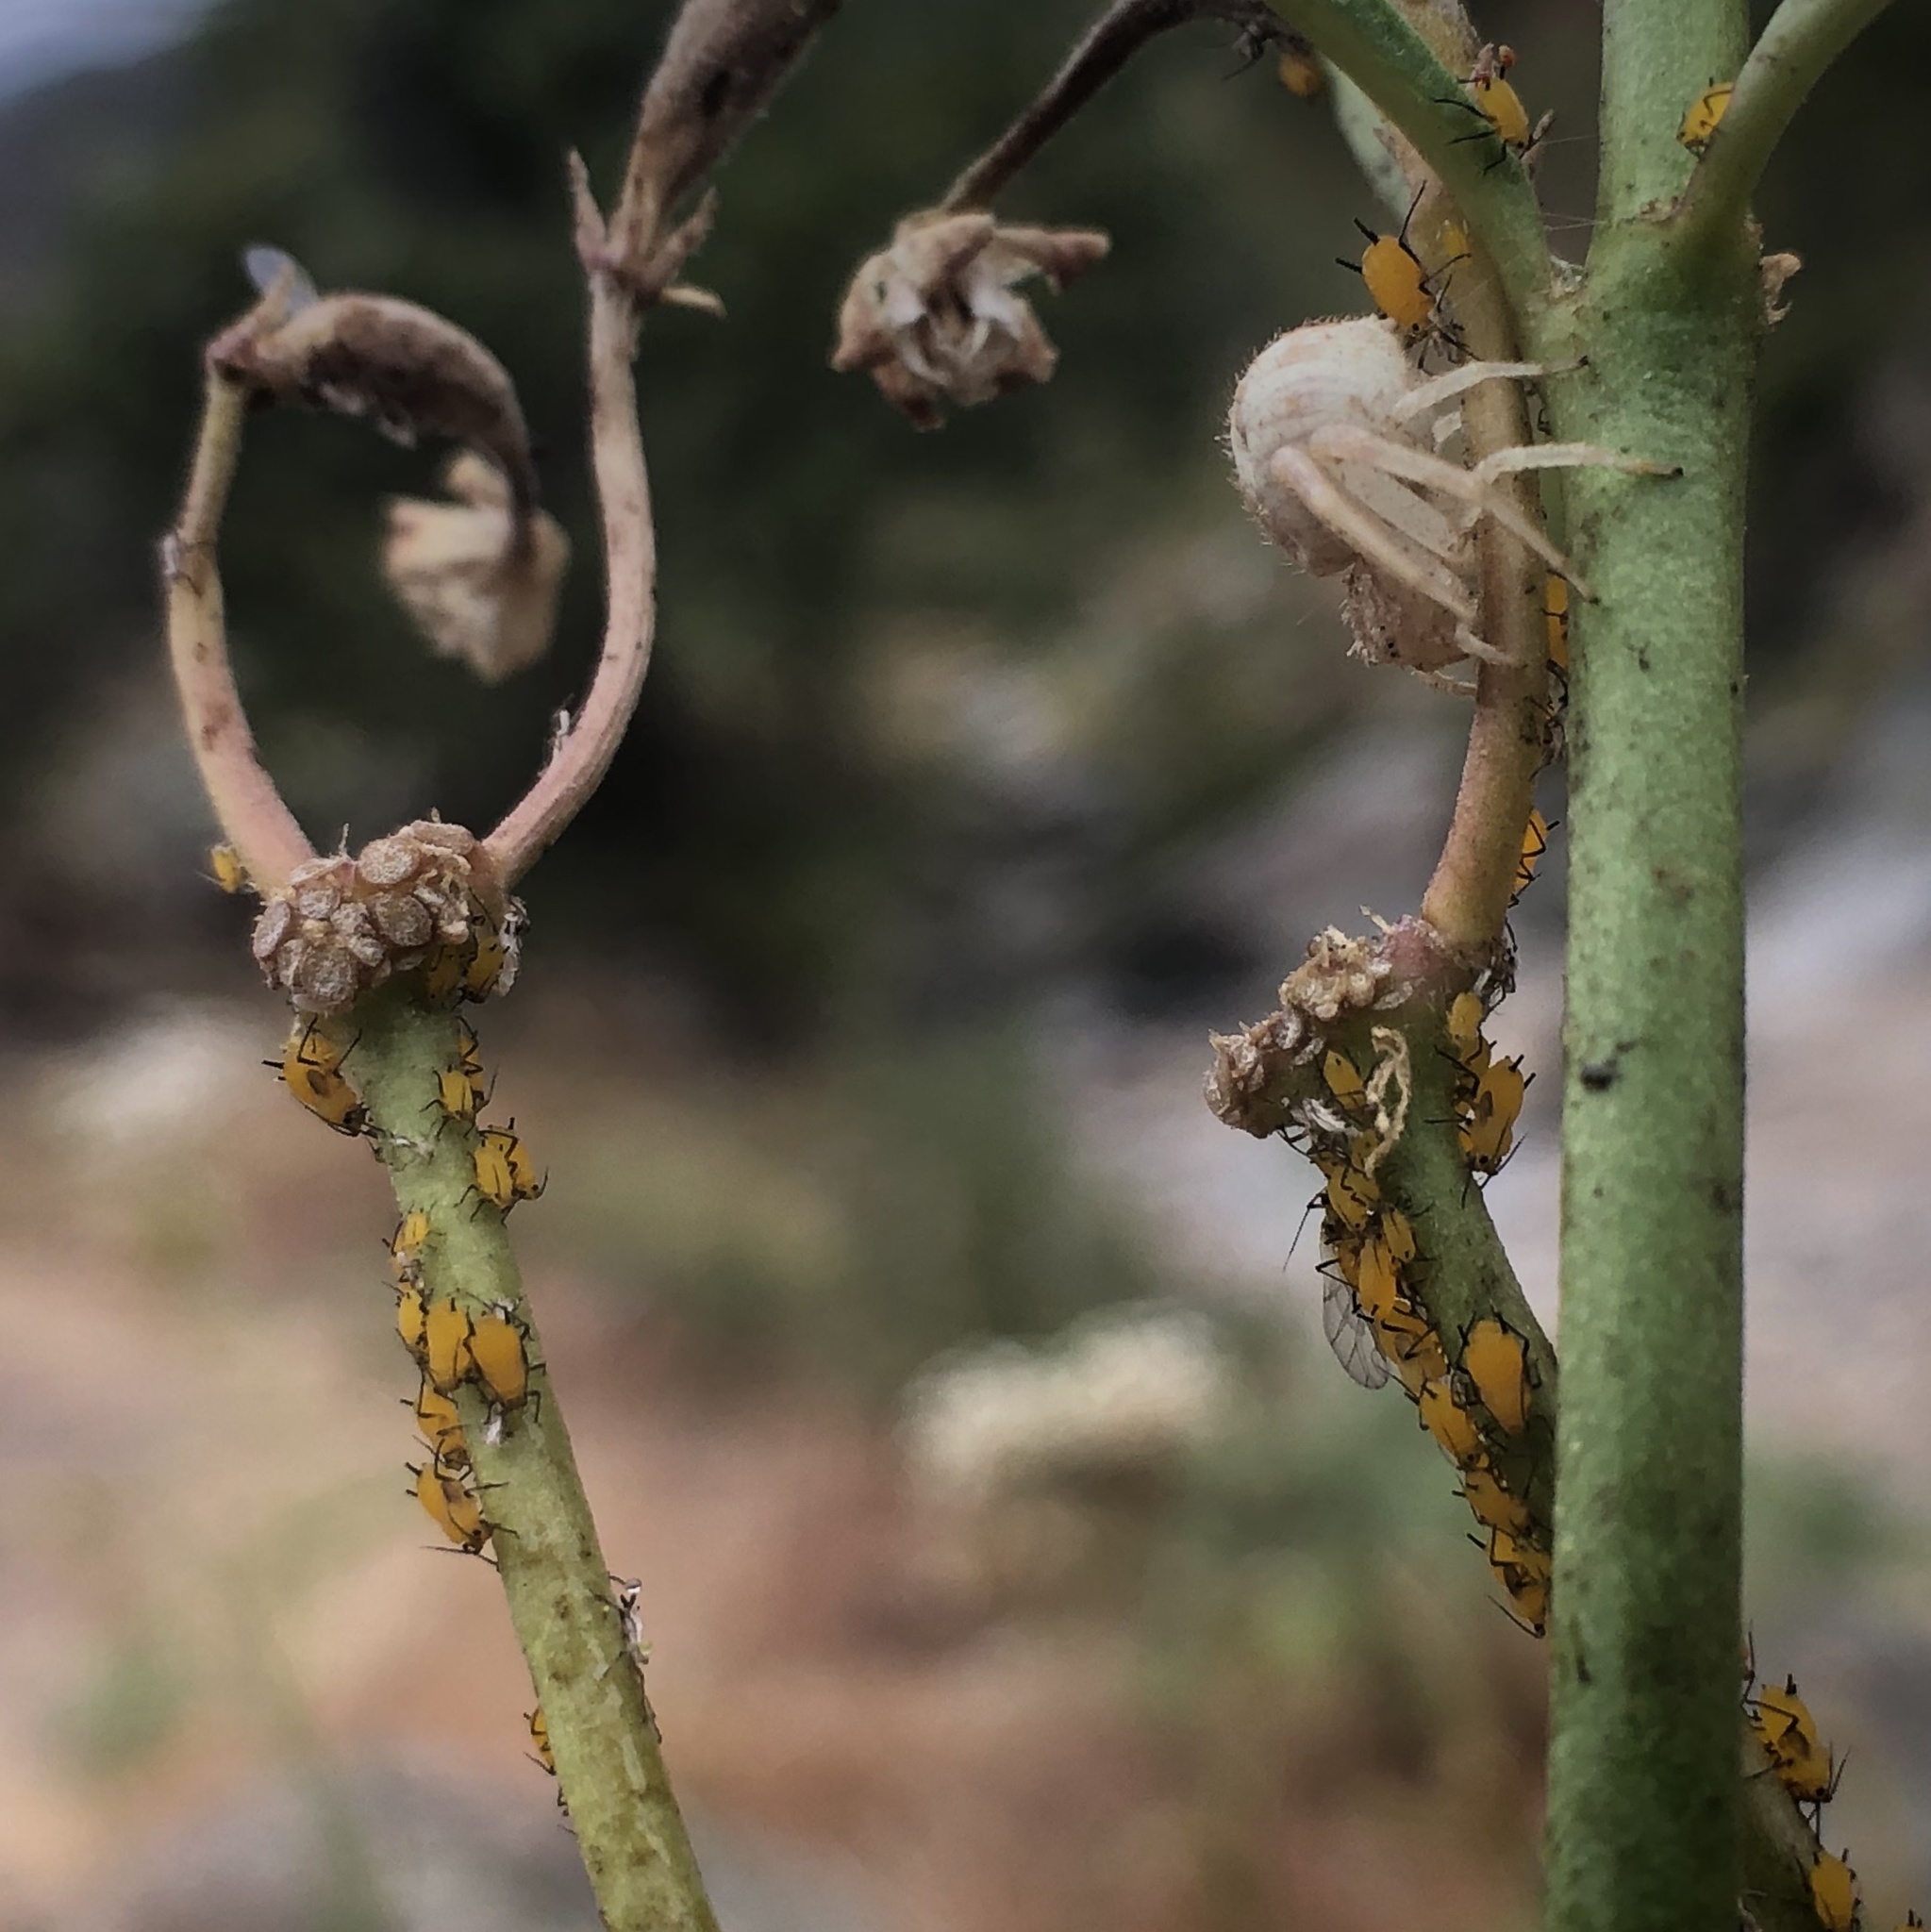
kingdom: Animalia
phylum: Arthropoda
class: Insecta
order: Hemiptera
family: Aphididae
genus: Aphis
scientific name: Aphis nerii
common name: Oleander aphid
